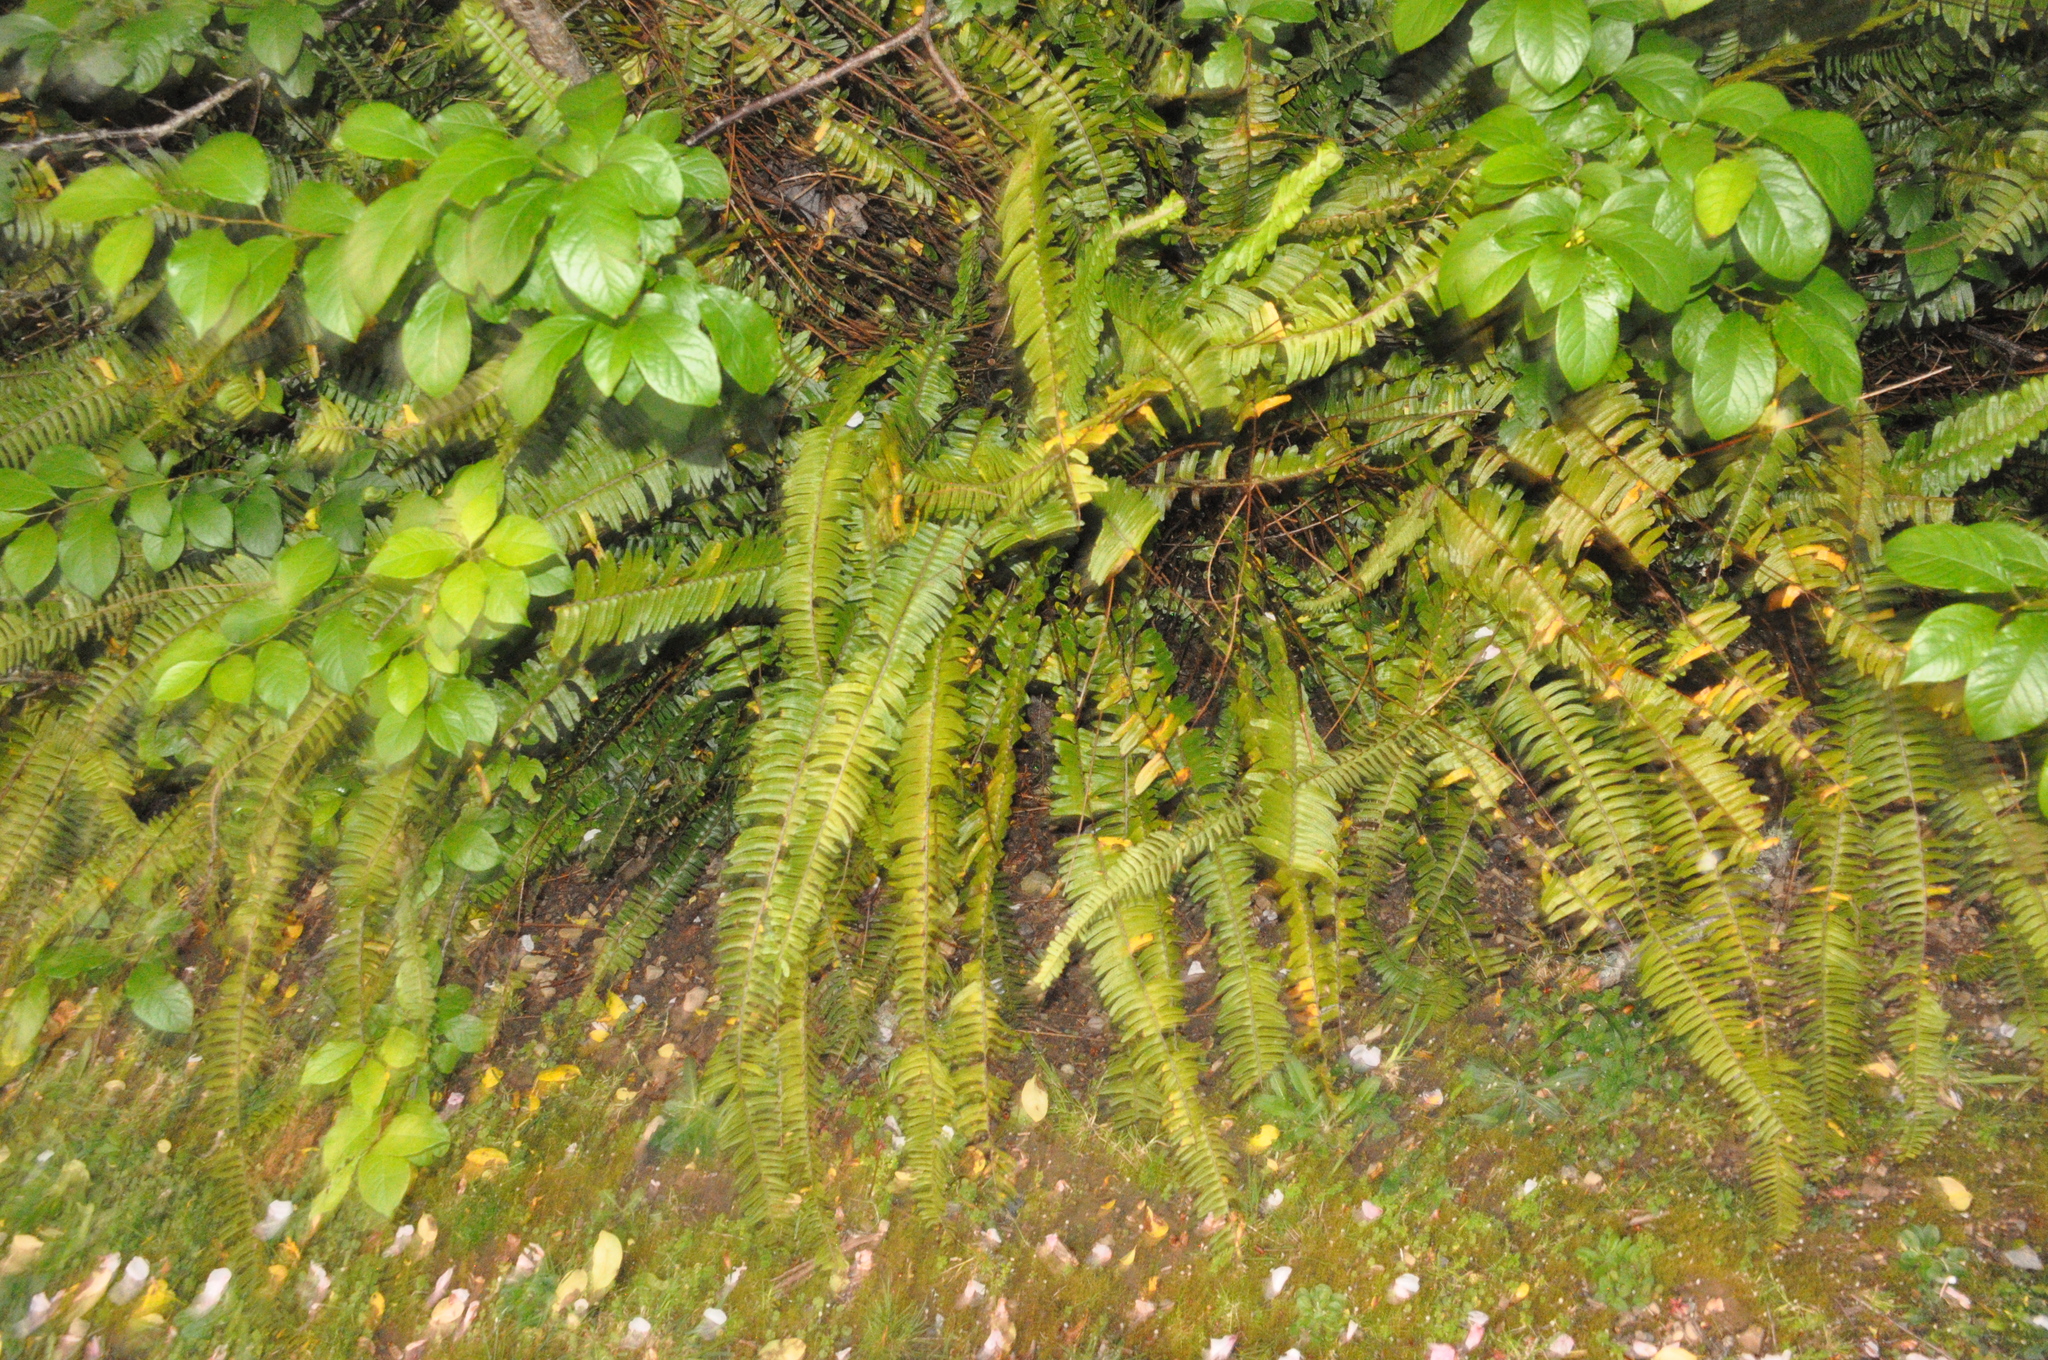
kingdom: Plantae
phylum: Tracheophyta
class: Polypodiopsida
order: Polypodiales
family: Nephrolepidaceae
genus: Nephrolepis
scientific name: Nephrolepis cordifolia
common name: Narrow swordfern
